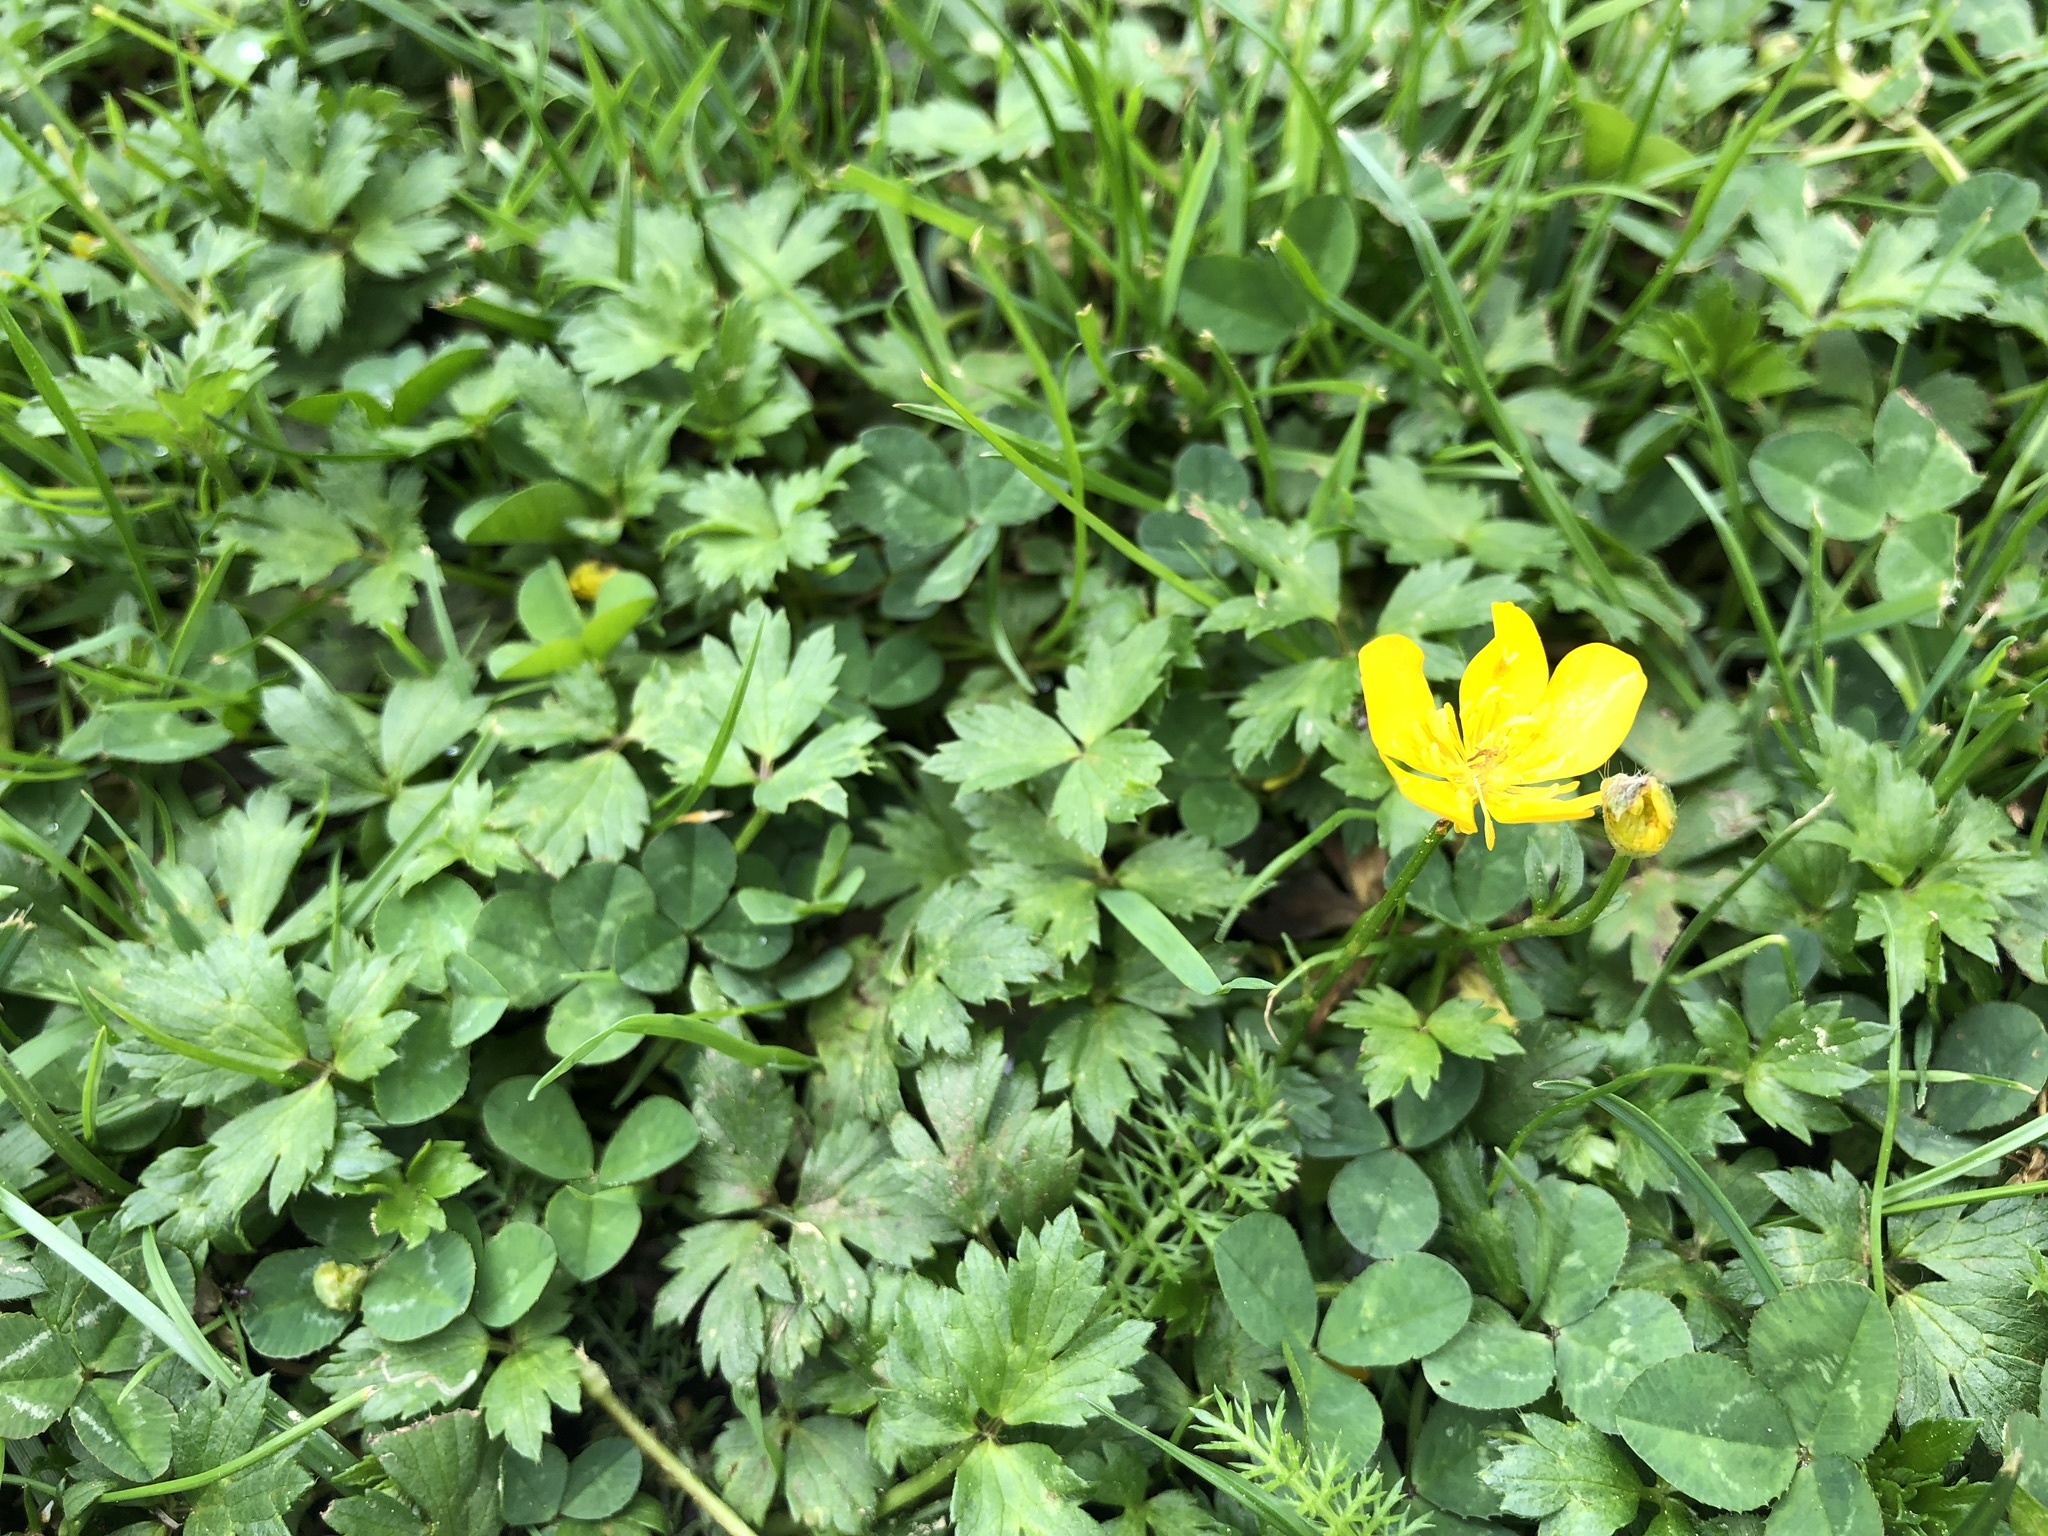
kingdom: Plantae
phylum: Tracheophyta
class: Magnoliopsida
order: Ranunculales
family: Ranunculaceae
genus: Ranunculus
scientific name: Ranunculus repens
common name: Creeping buttercup
